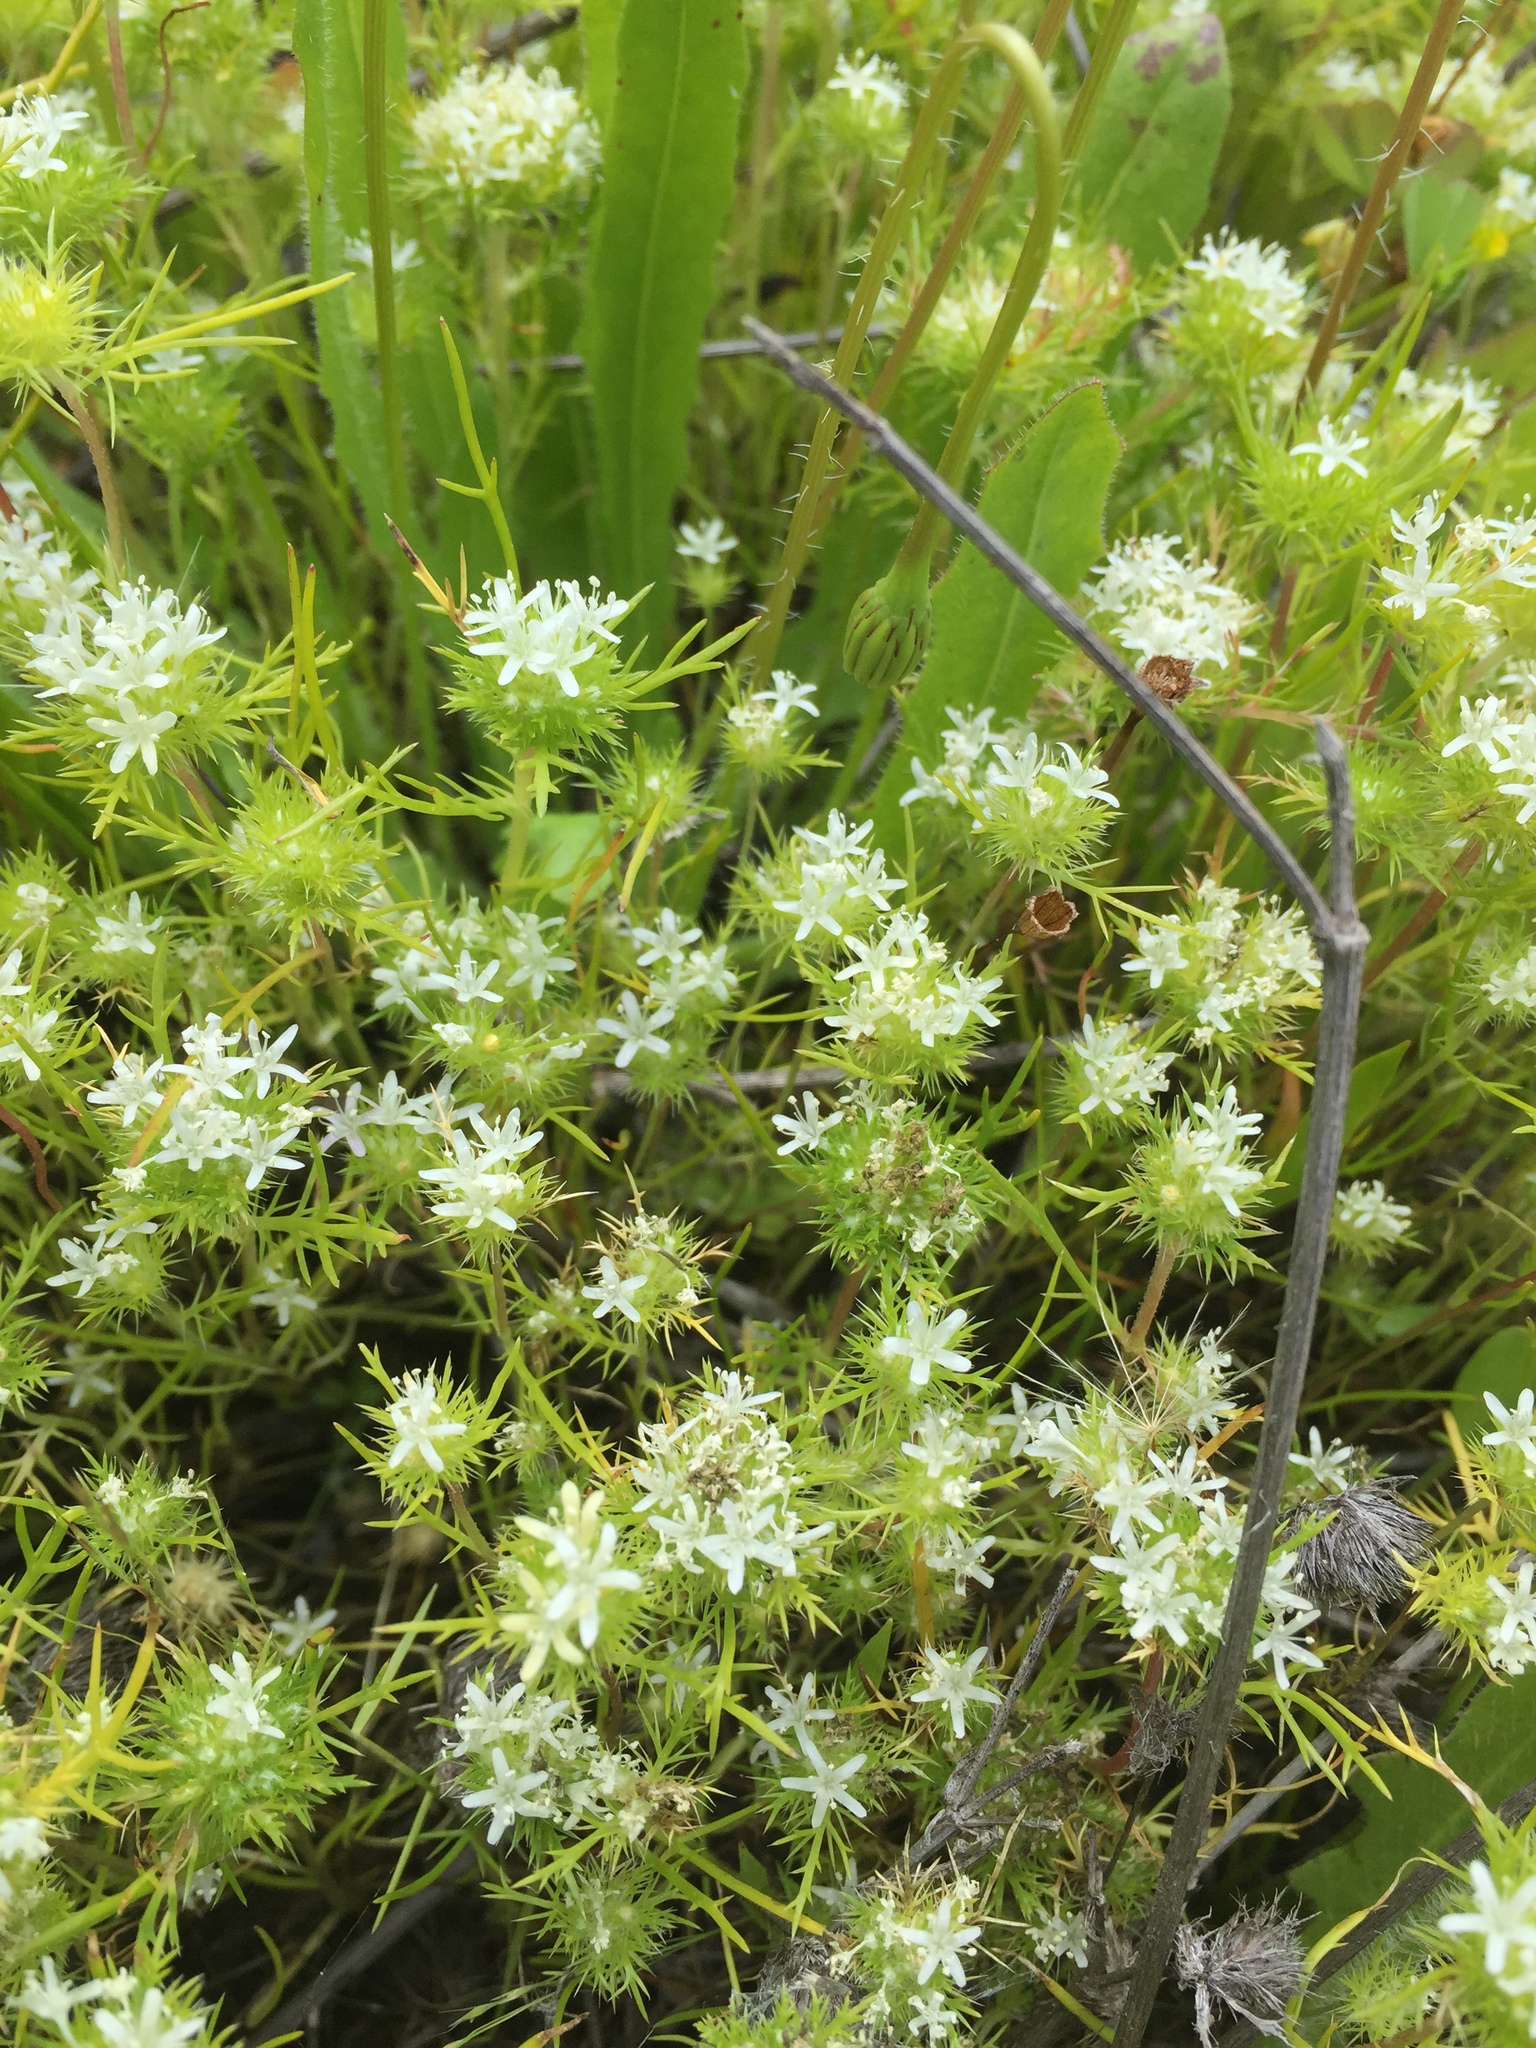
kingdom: Plantae
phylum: Tracheophyta
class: Magnoliopsida
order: Ericales
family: Polemoniaceae
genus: Navarretia
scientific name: Navarretia leucocephala
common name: White-flowered navarretia
